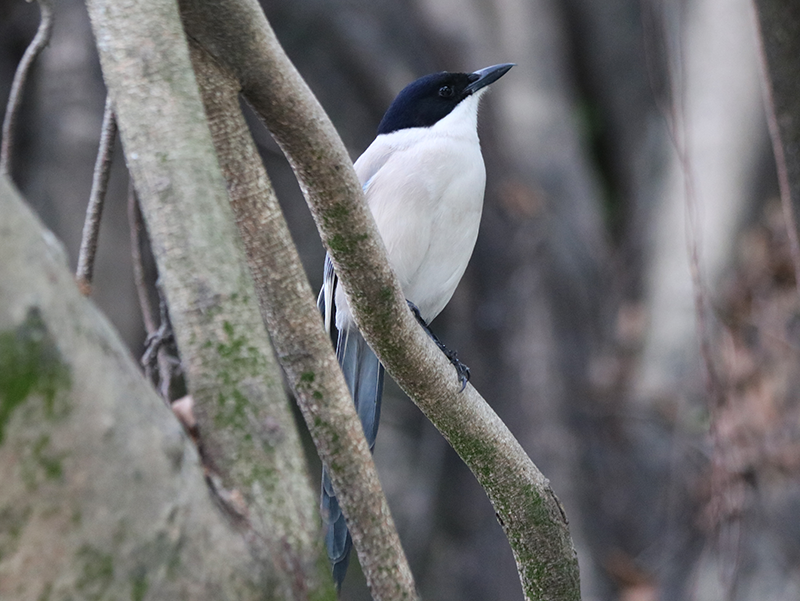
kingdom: Animalia
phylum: Chordata
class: Aves
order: Passeriformes
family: Corvidae
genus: Cyanopica
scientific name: Cyanopica cyanus
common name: Azure-winged magpie
